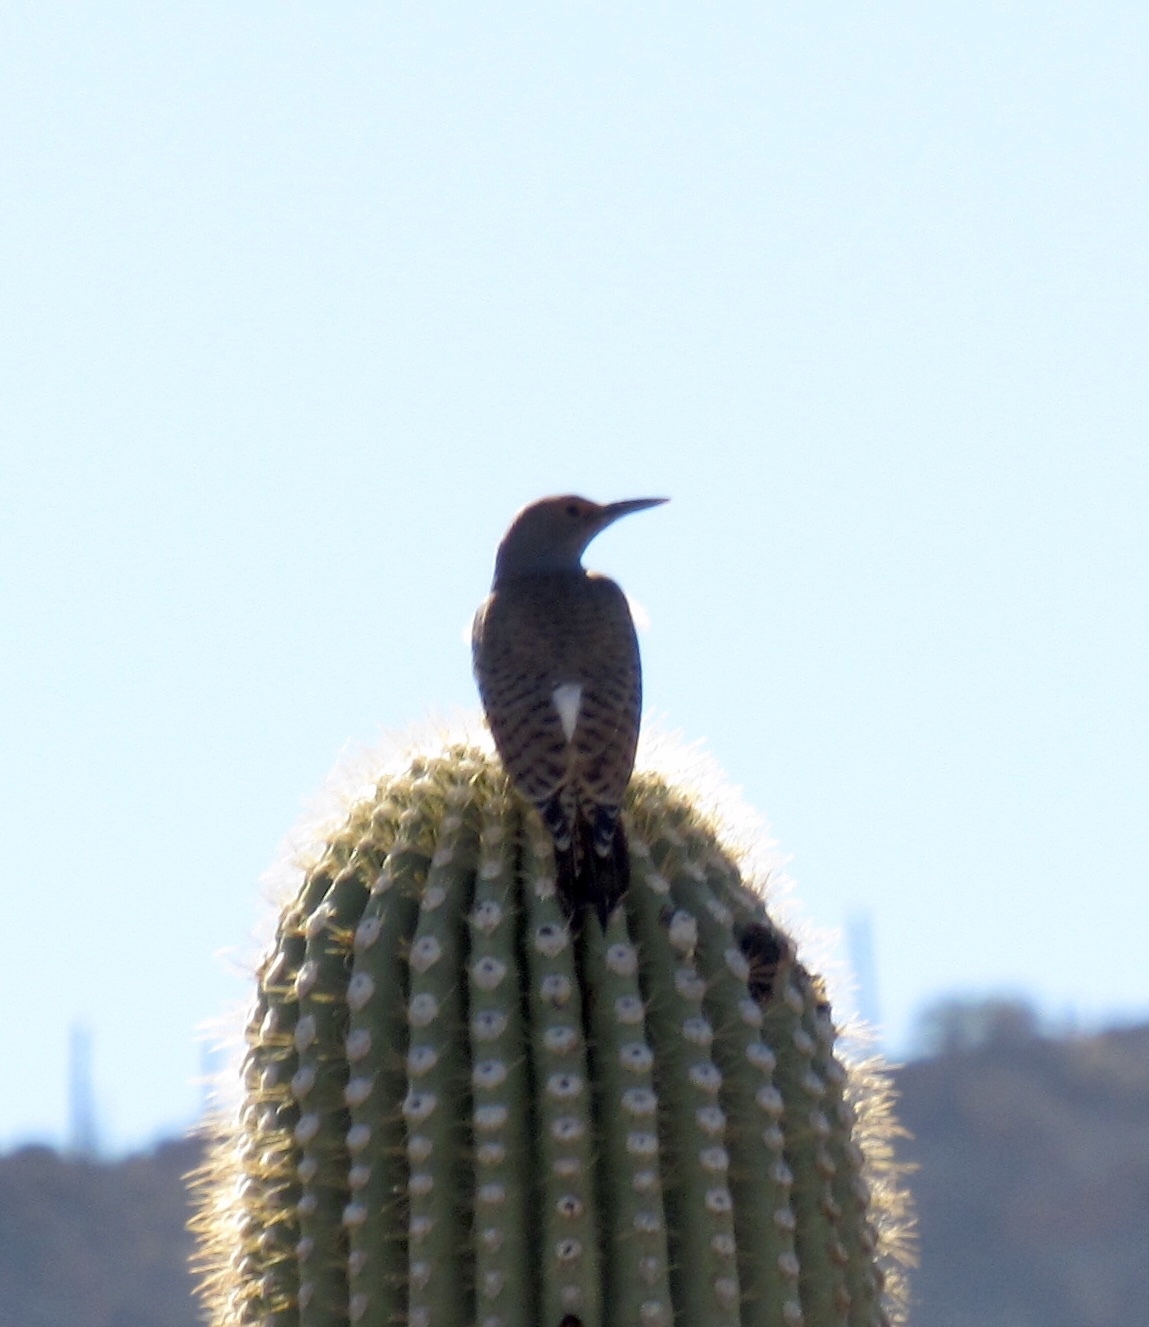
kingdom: Animalia
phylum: Chordata
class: Aves
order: Piciformes
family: Picidae
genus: Colaptes
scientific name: Colaptes chrysoides
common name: Gilded flicker
